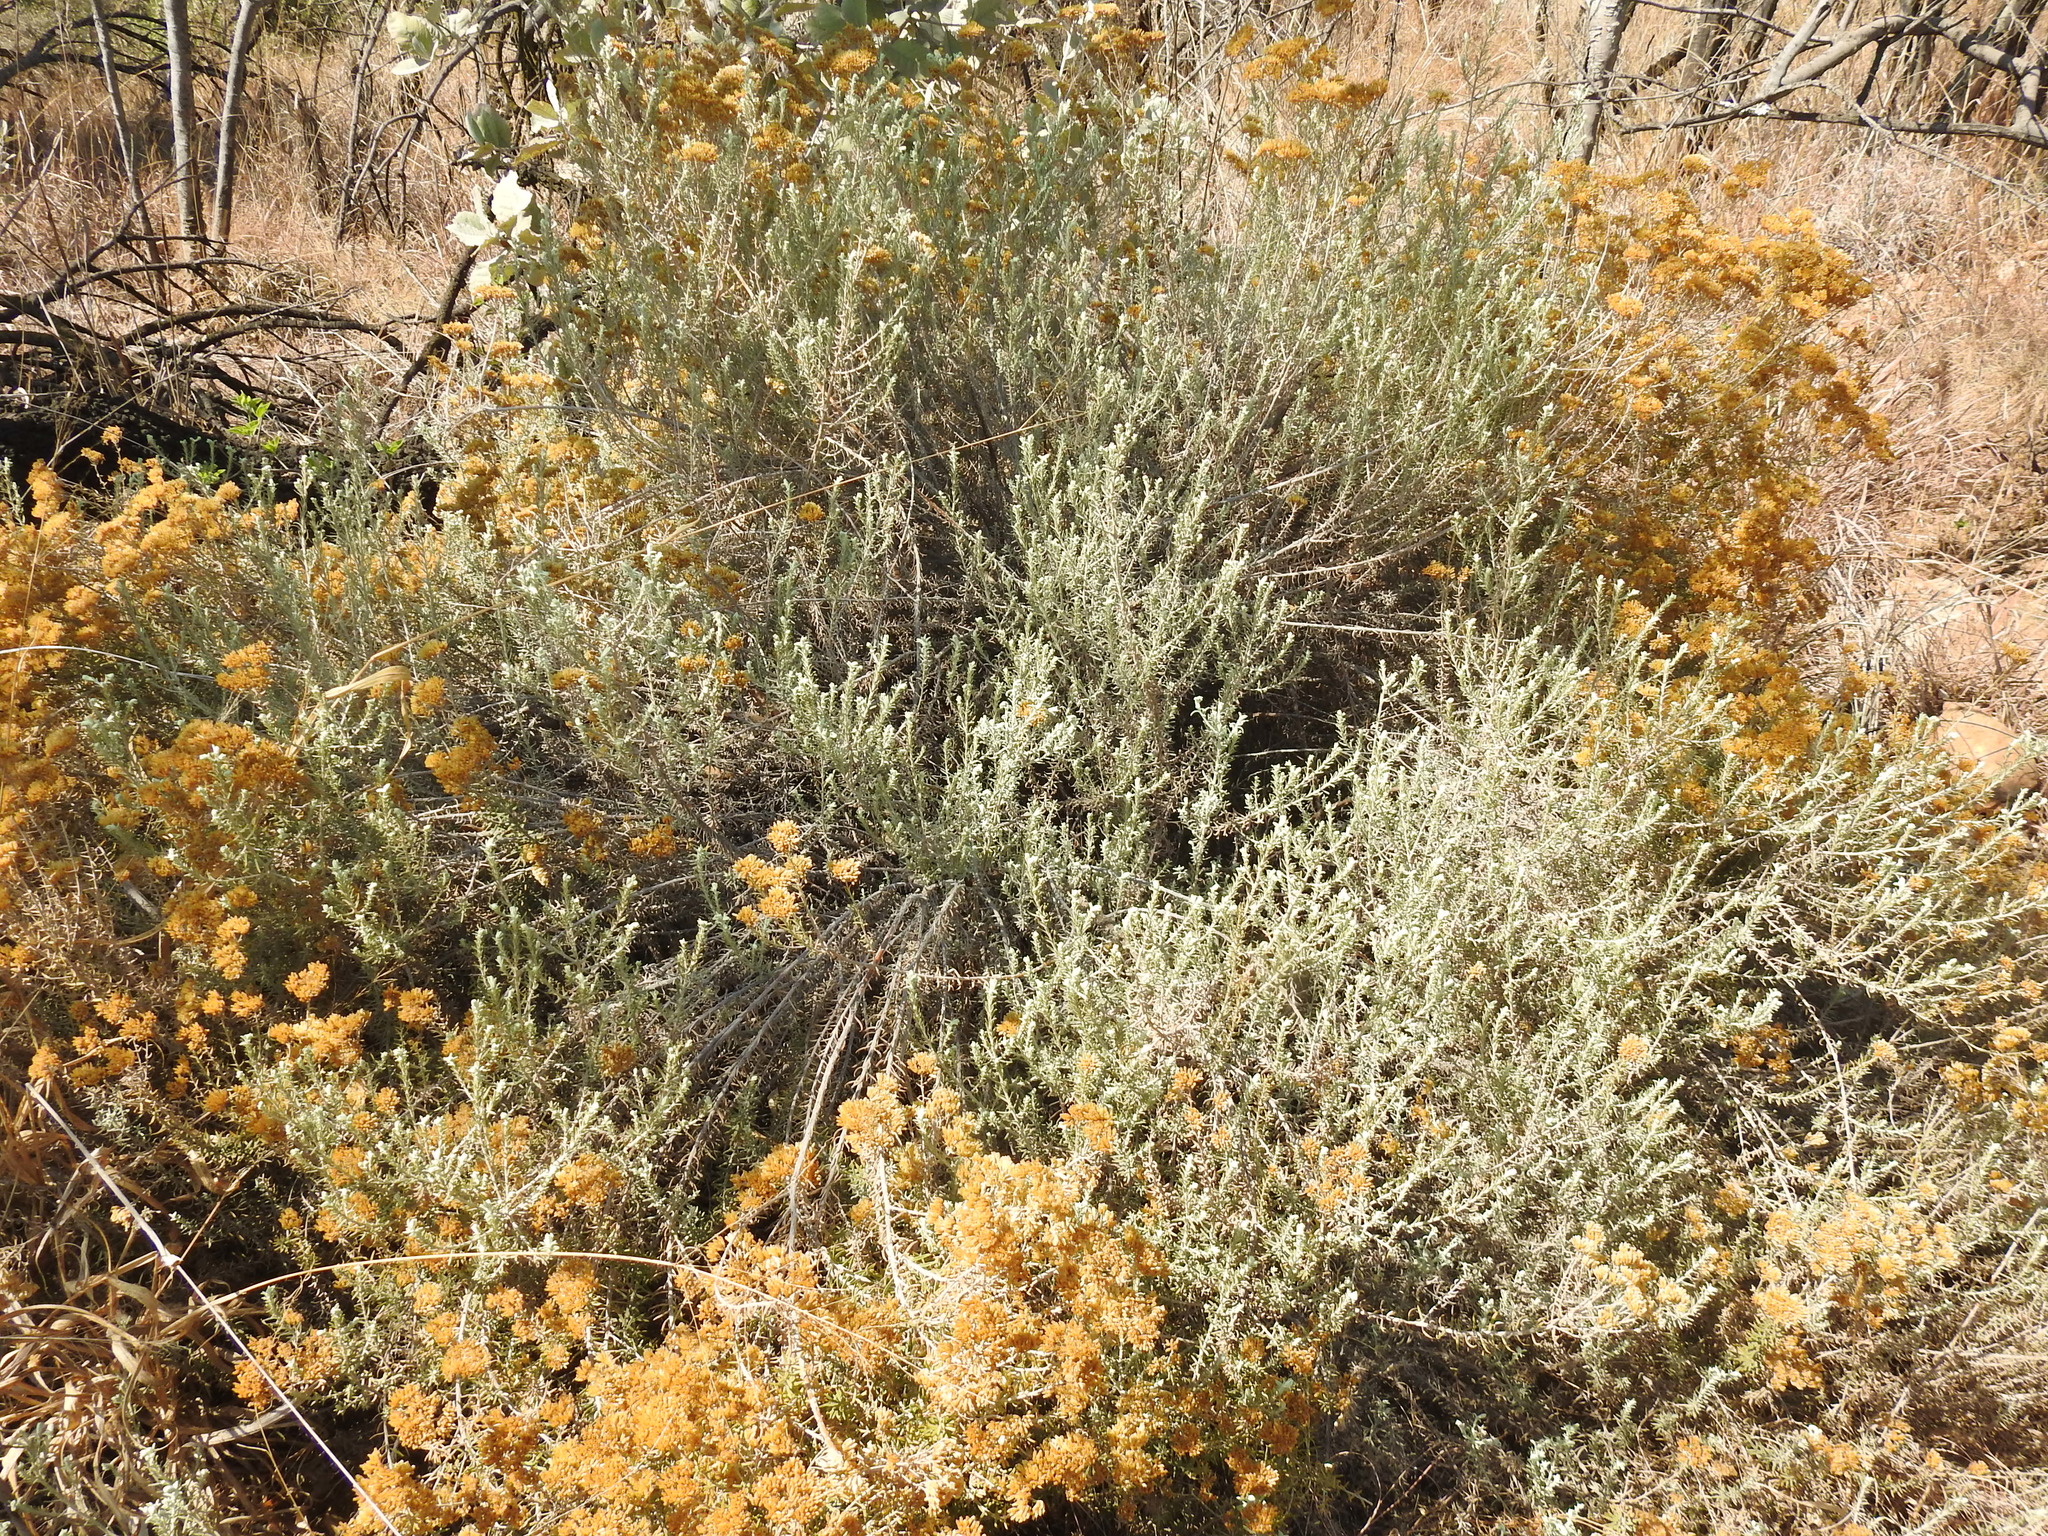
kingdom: Plantae
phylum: Tracheophyta
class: Magnoliopsida
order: Asterales
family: Asteraceae
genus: Helichrysum
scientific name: Helichrysum kraussii
